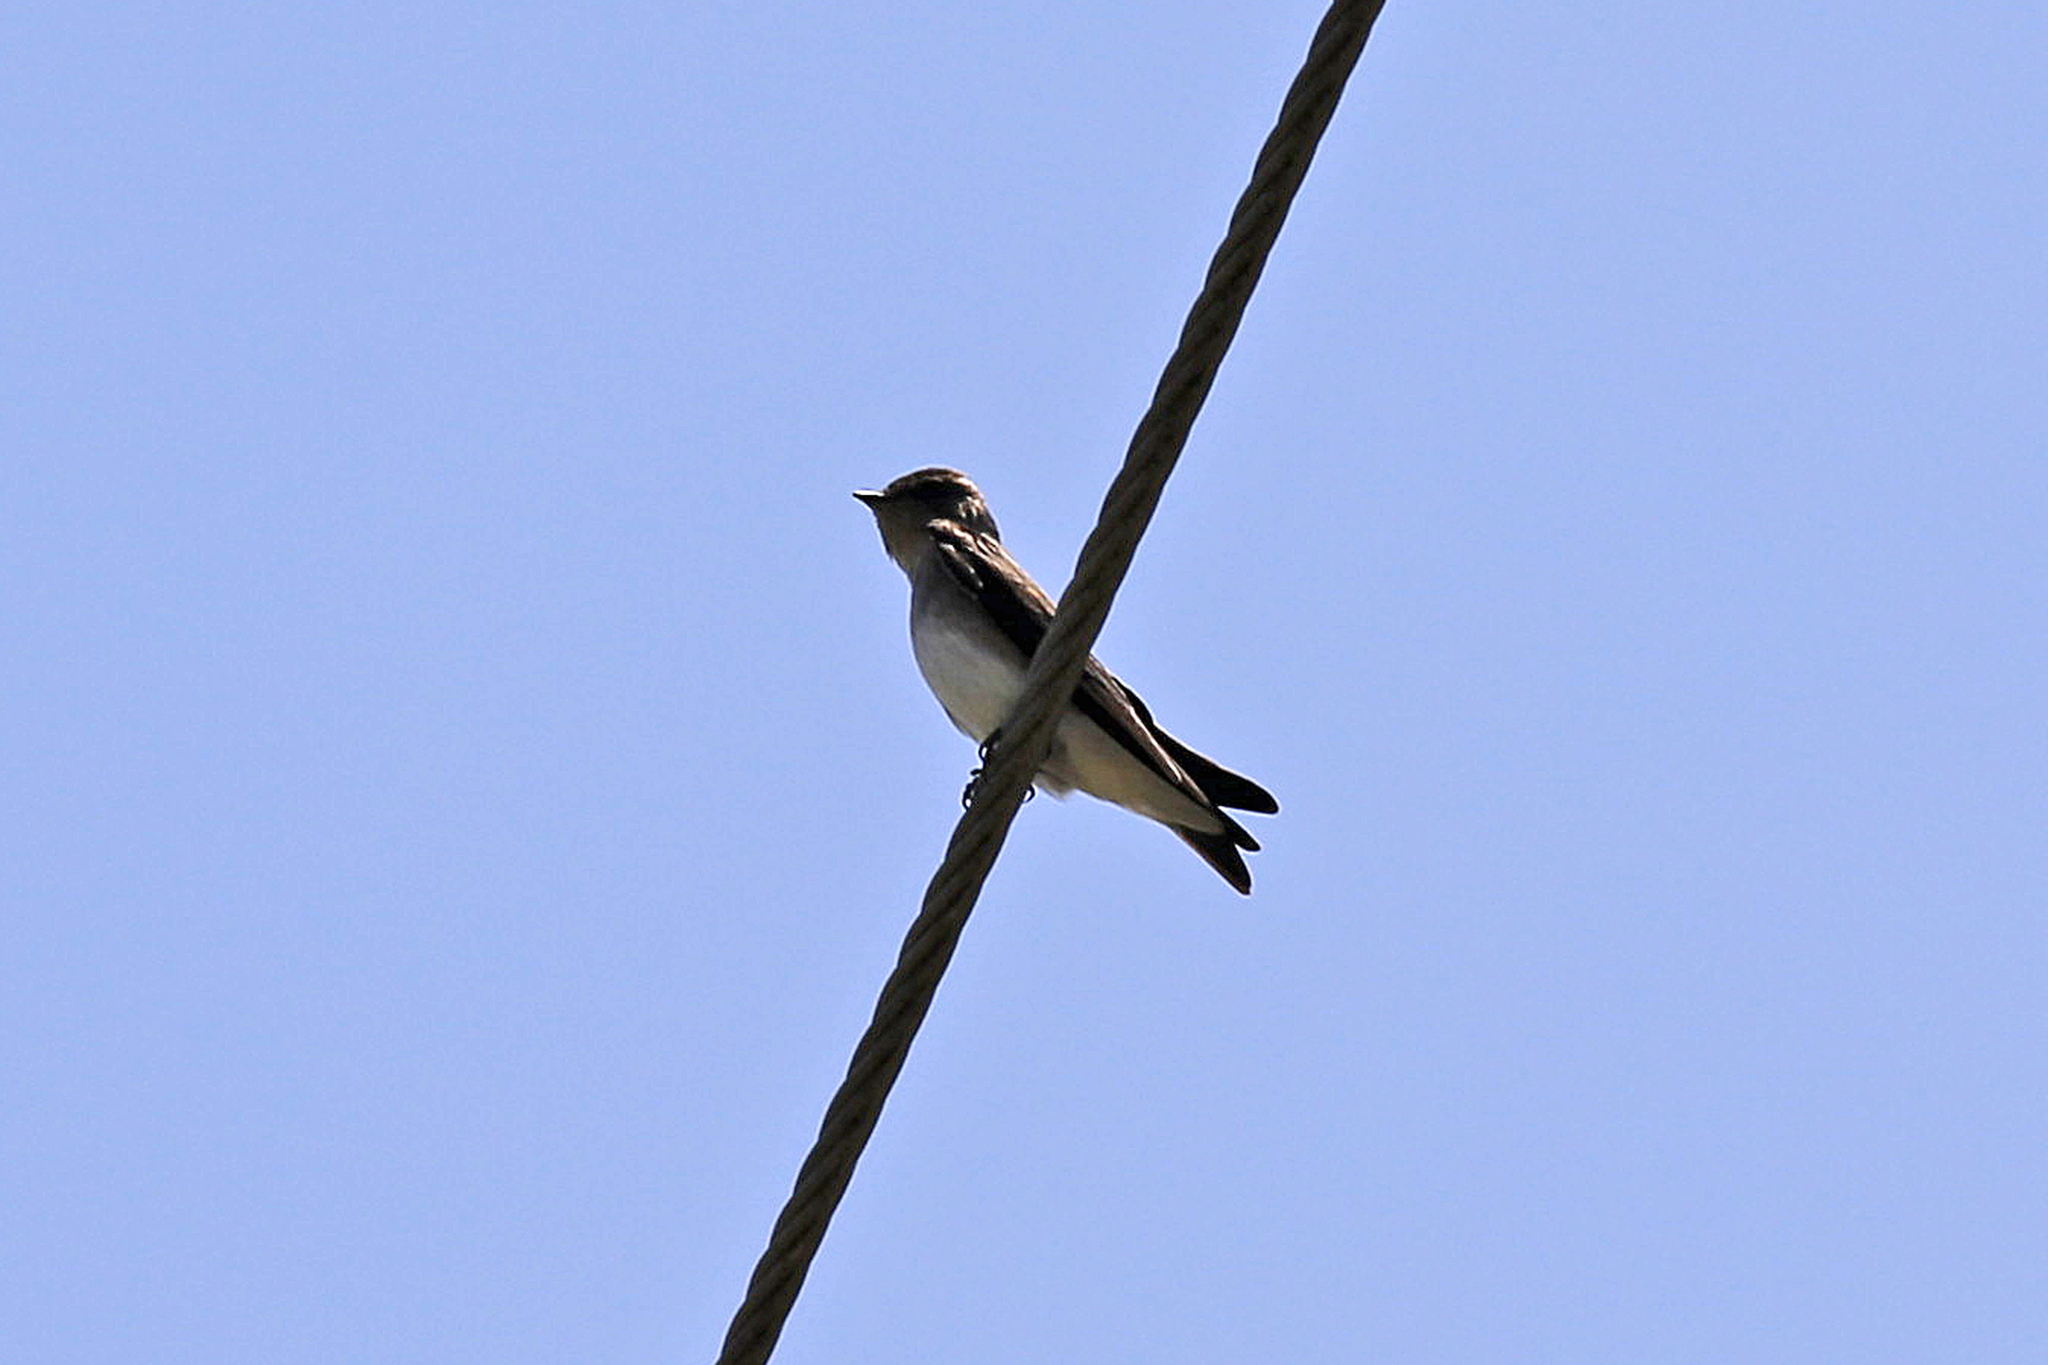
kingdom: Animalia
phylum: Chordata
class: Aves
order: Passeriformes
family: Hirundinidae
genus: Stelgidopteryx
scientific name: Stelgidopteryx serripennis
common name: Northern rough-winged swallow
